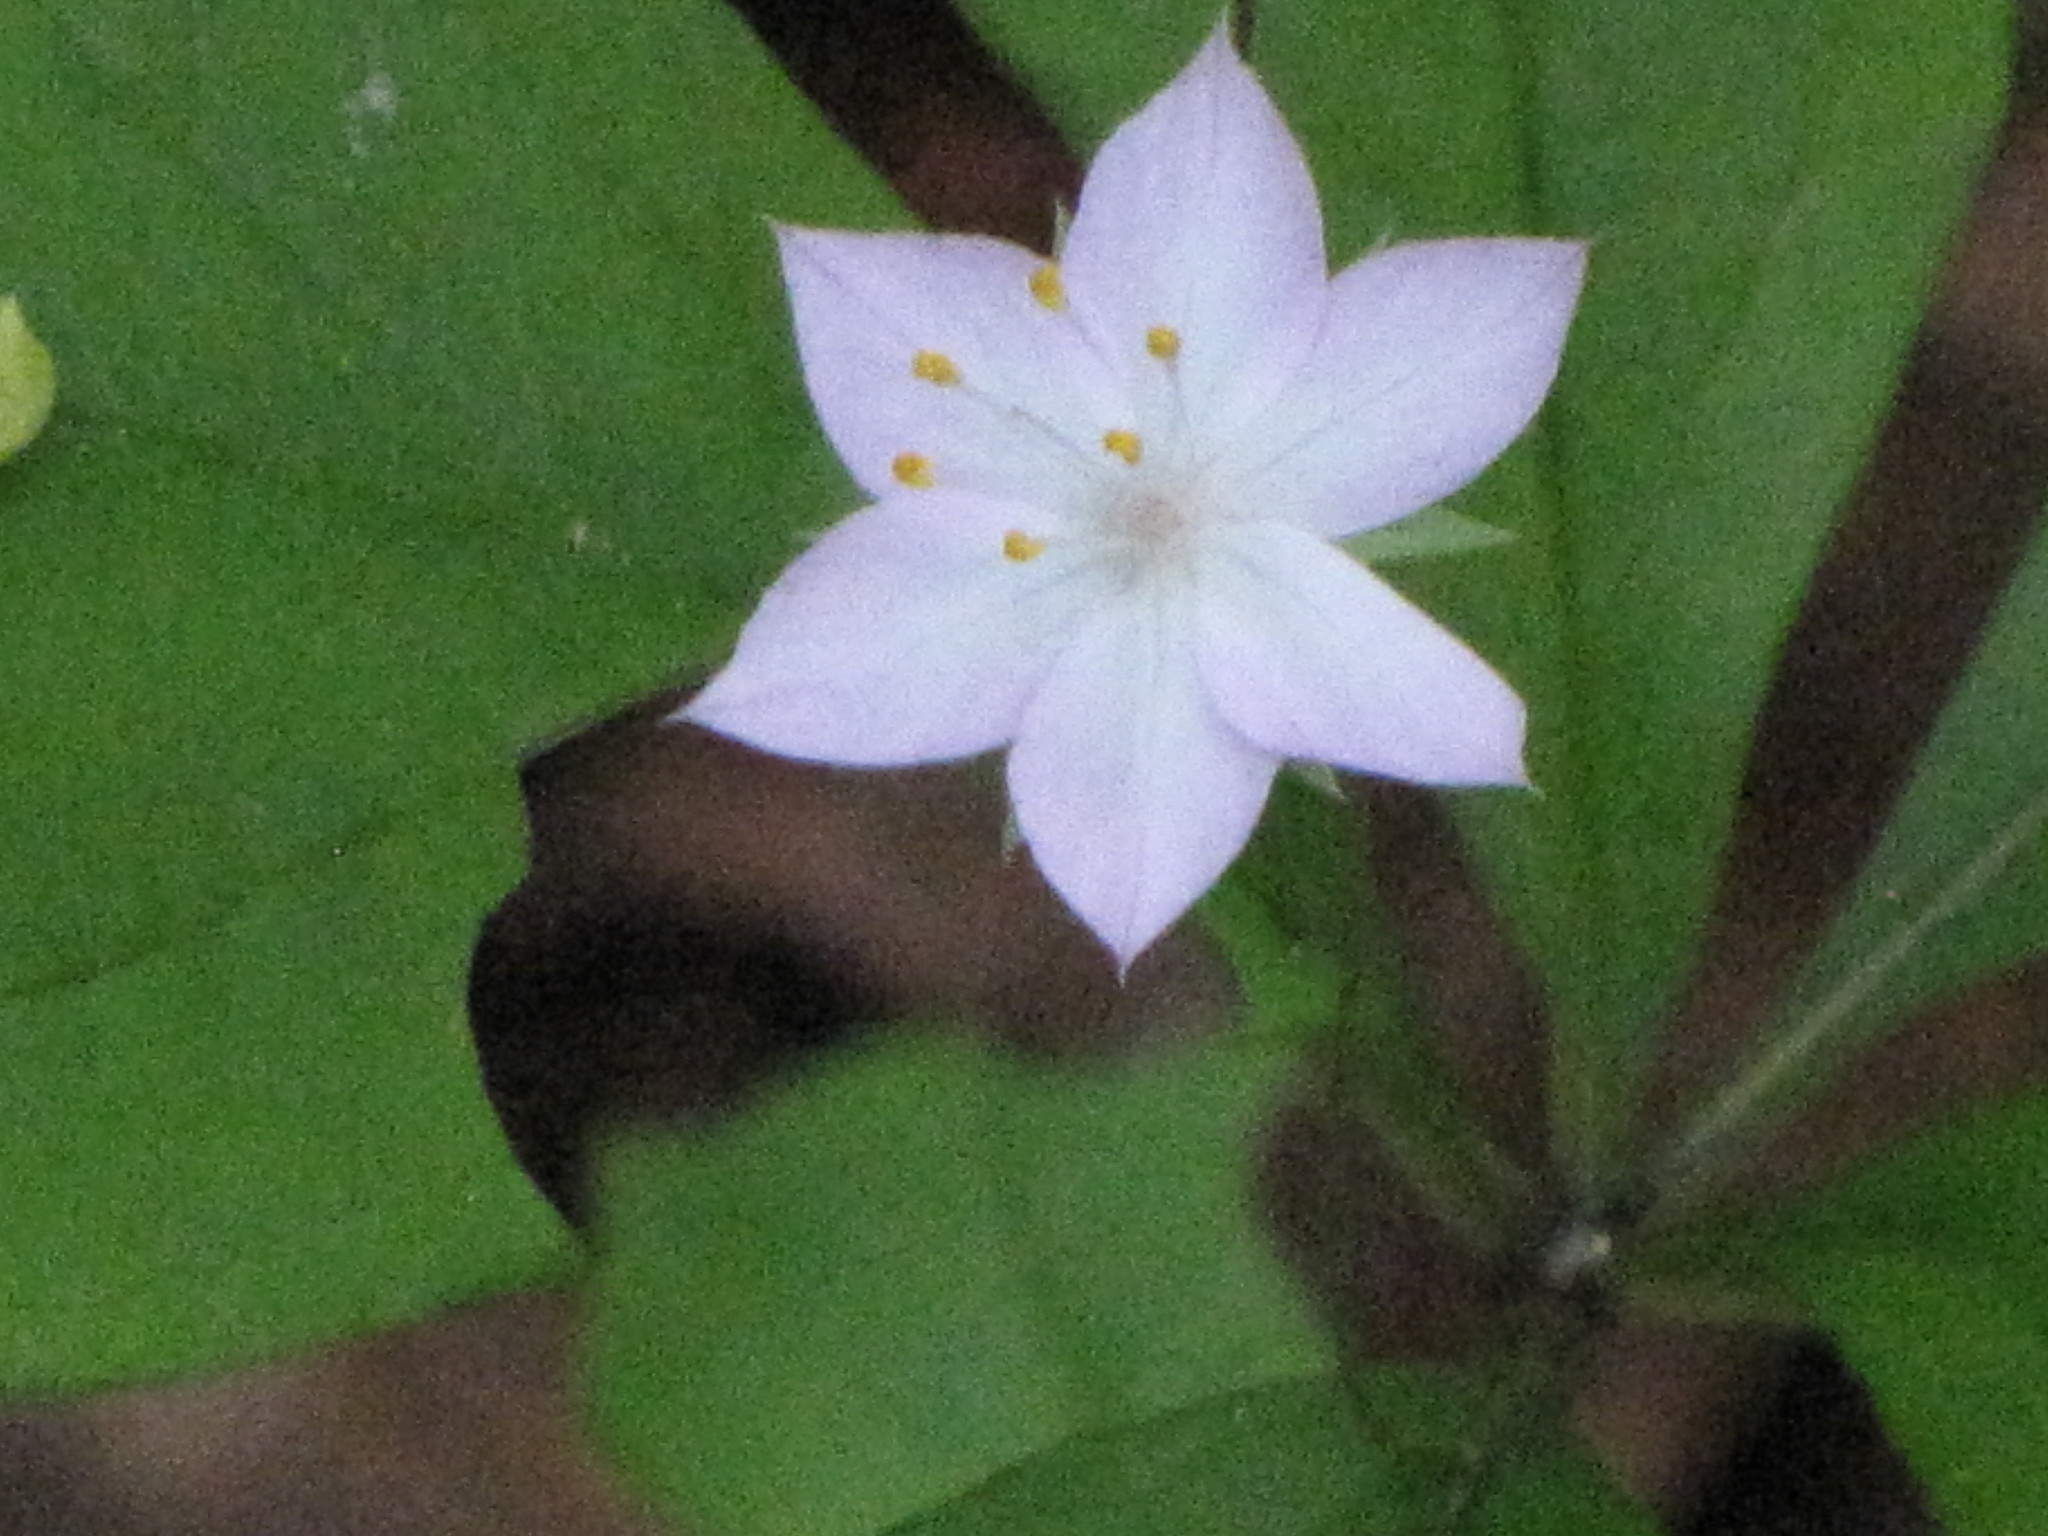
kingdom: Plantae
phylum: Tracheophyta
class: Magnoliopsida
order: Ericales
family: Primulaceae
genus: Lysimachia
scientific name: Lysimachia latifolia
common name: Pacific starflower
